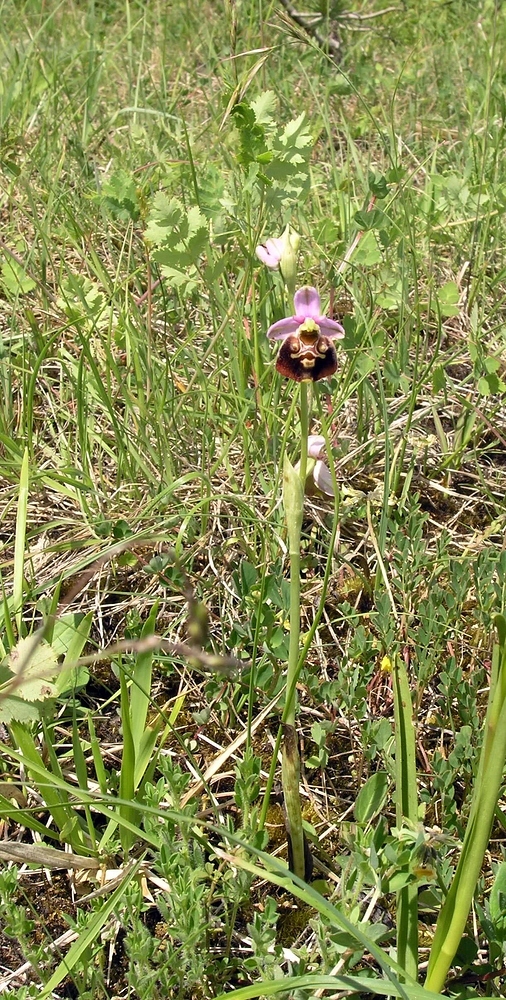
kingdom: Plantae
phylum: Tracheophyta
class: Liliopsida
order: Asparagales
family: Orchidaceae
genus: Ophrys
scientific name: Ophrys holosericea
